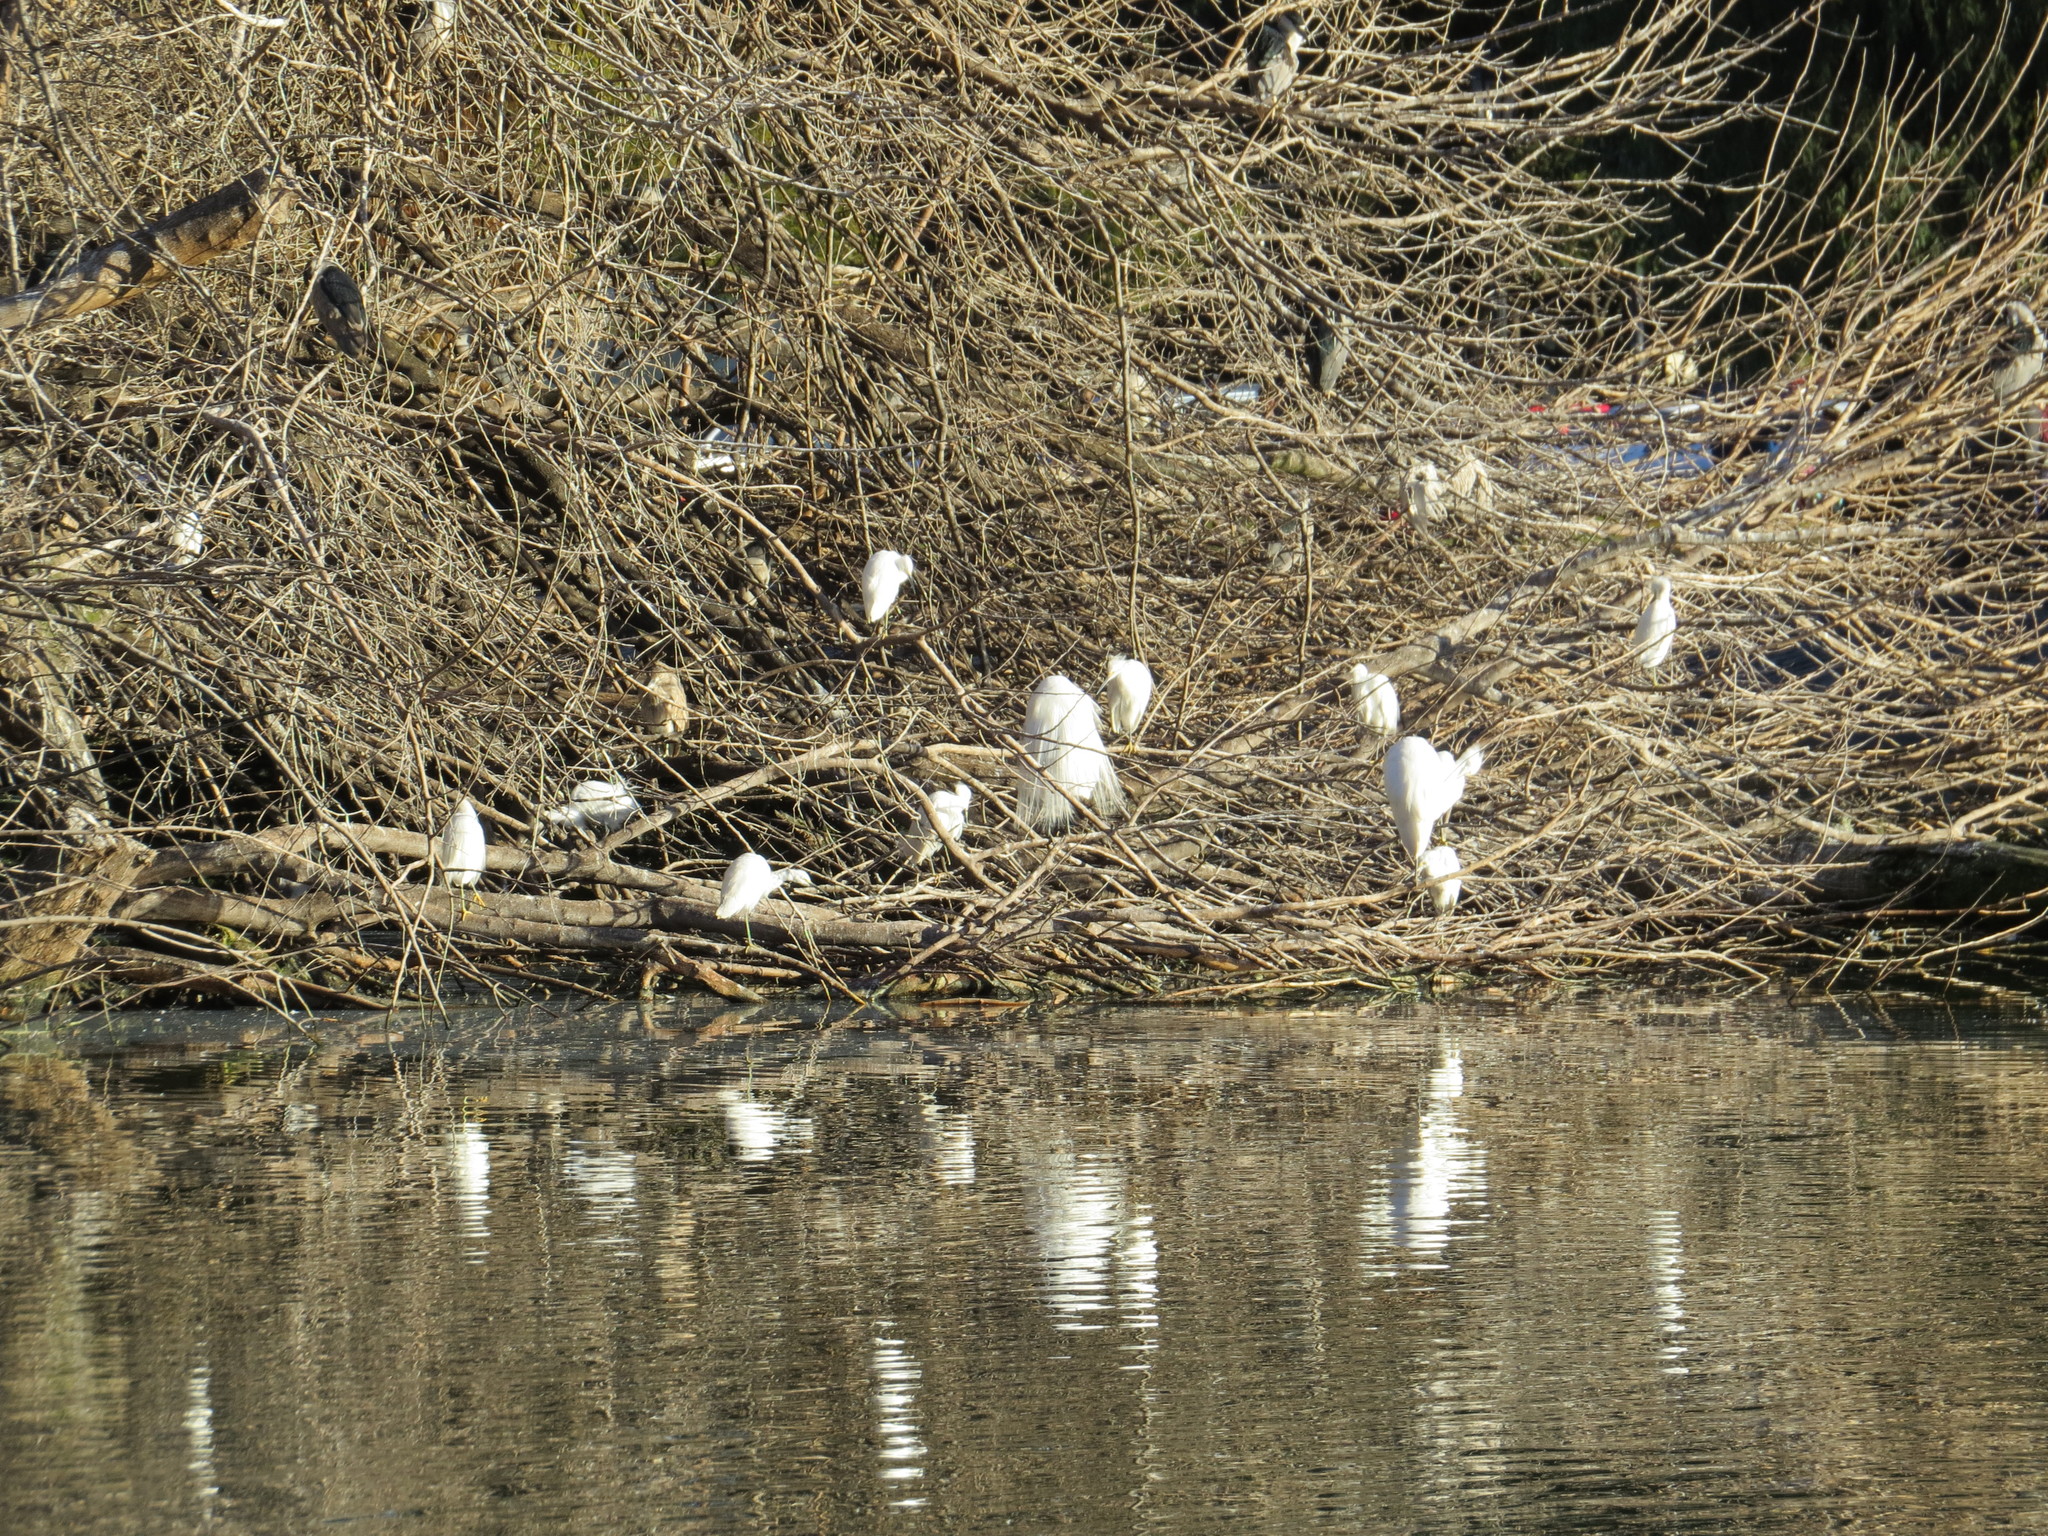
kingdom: Animalia
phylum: Chordata
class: Aves
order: Pelecaniformes
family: Ardeidae
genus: Egretta
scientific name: Egretta thula
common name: Snowy egret
